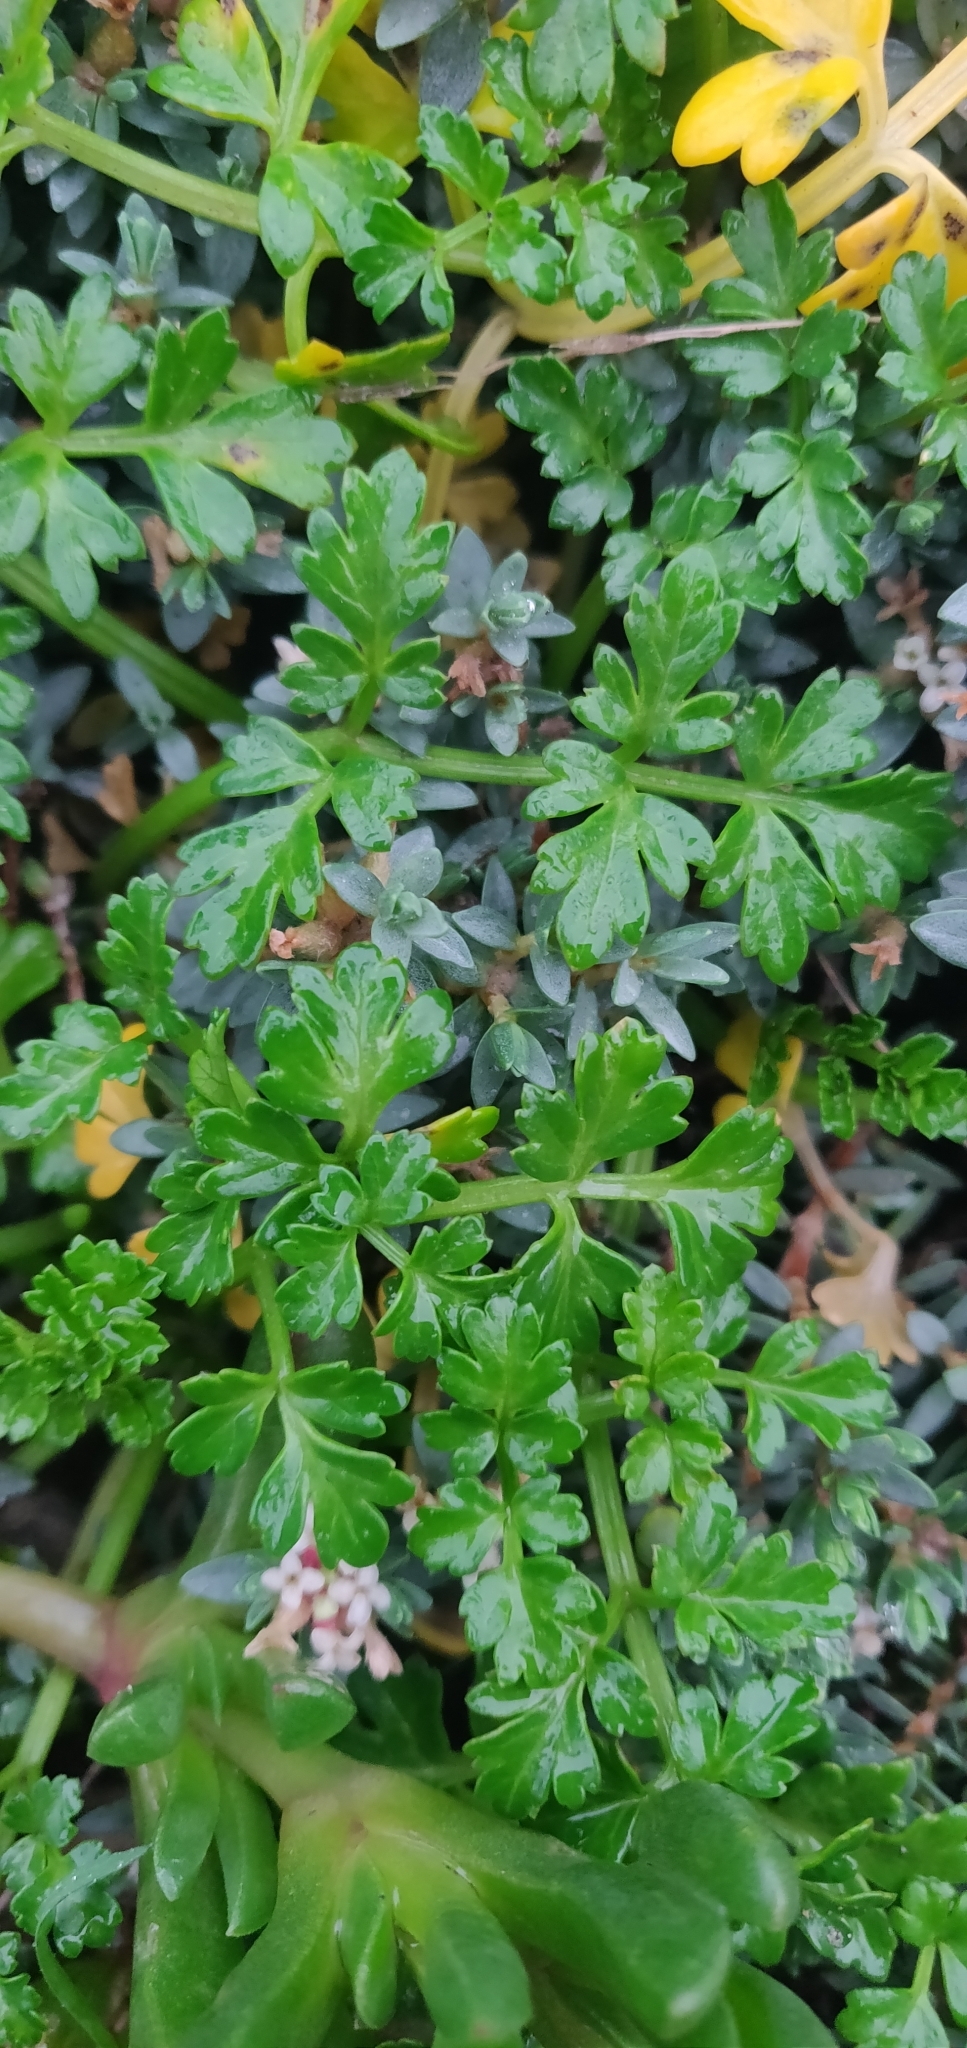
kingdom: Plantae
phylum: Tracheophyta
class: Magnoliopsida
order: Apiales
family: Apiaceae
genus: Apium
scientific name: Apium prostratum
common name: Prostrate marshwort
